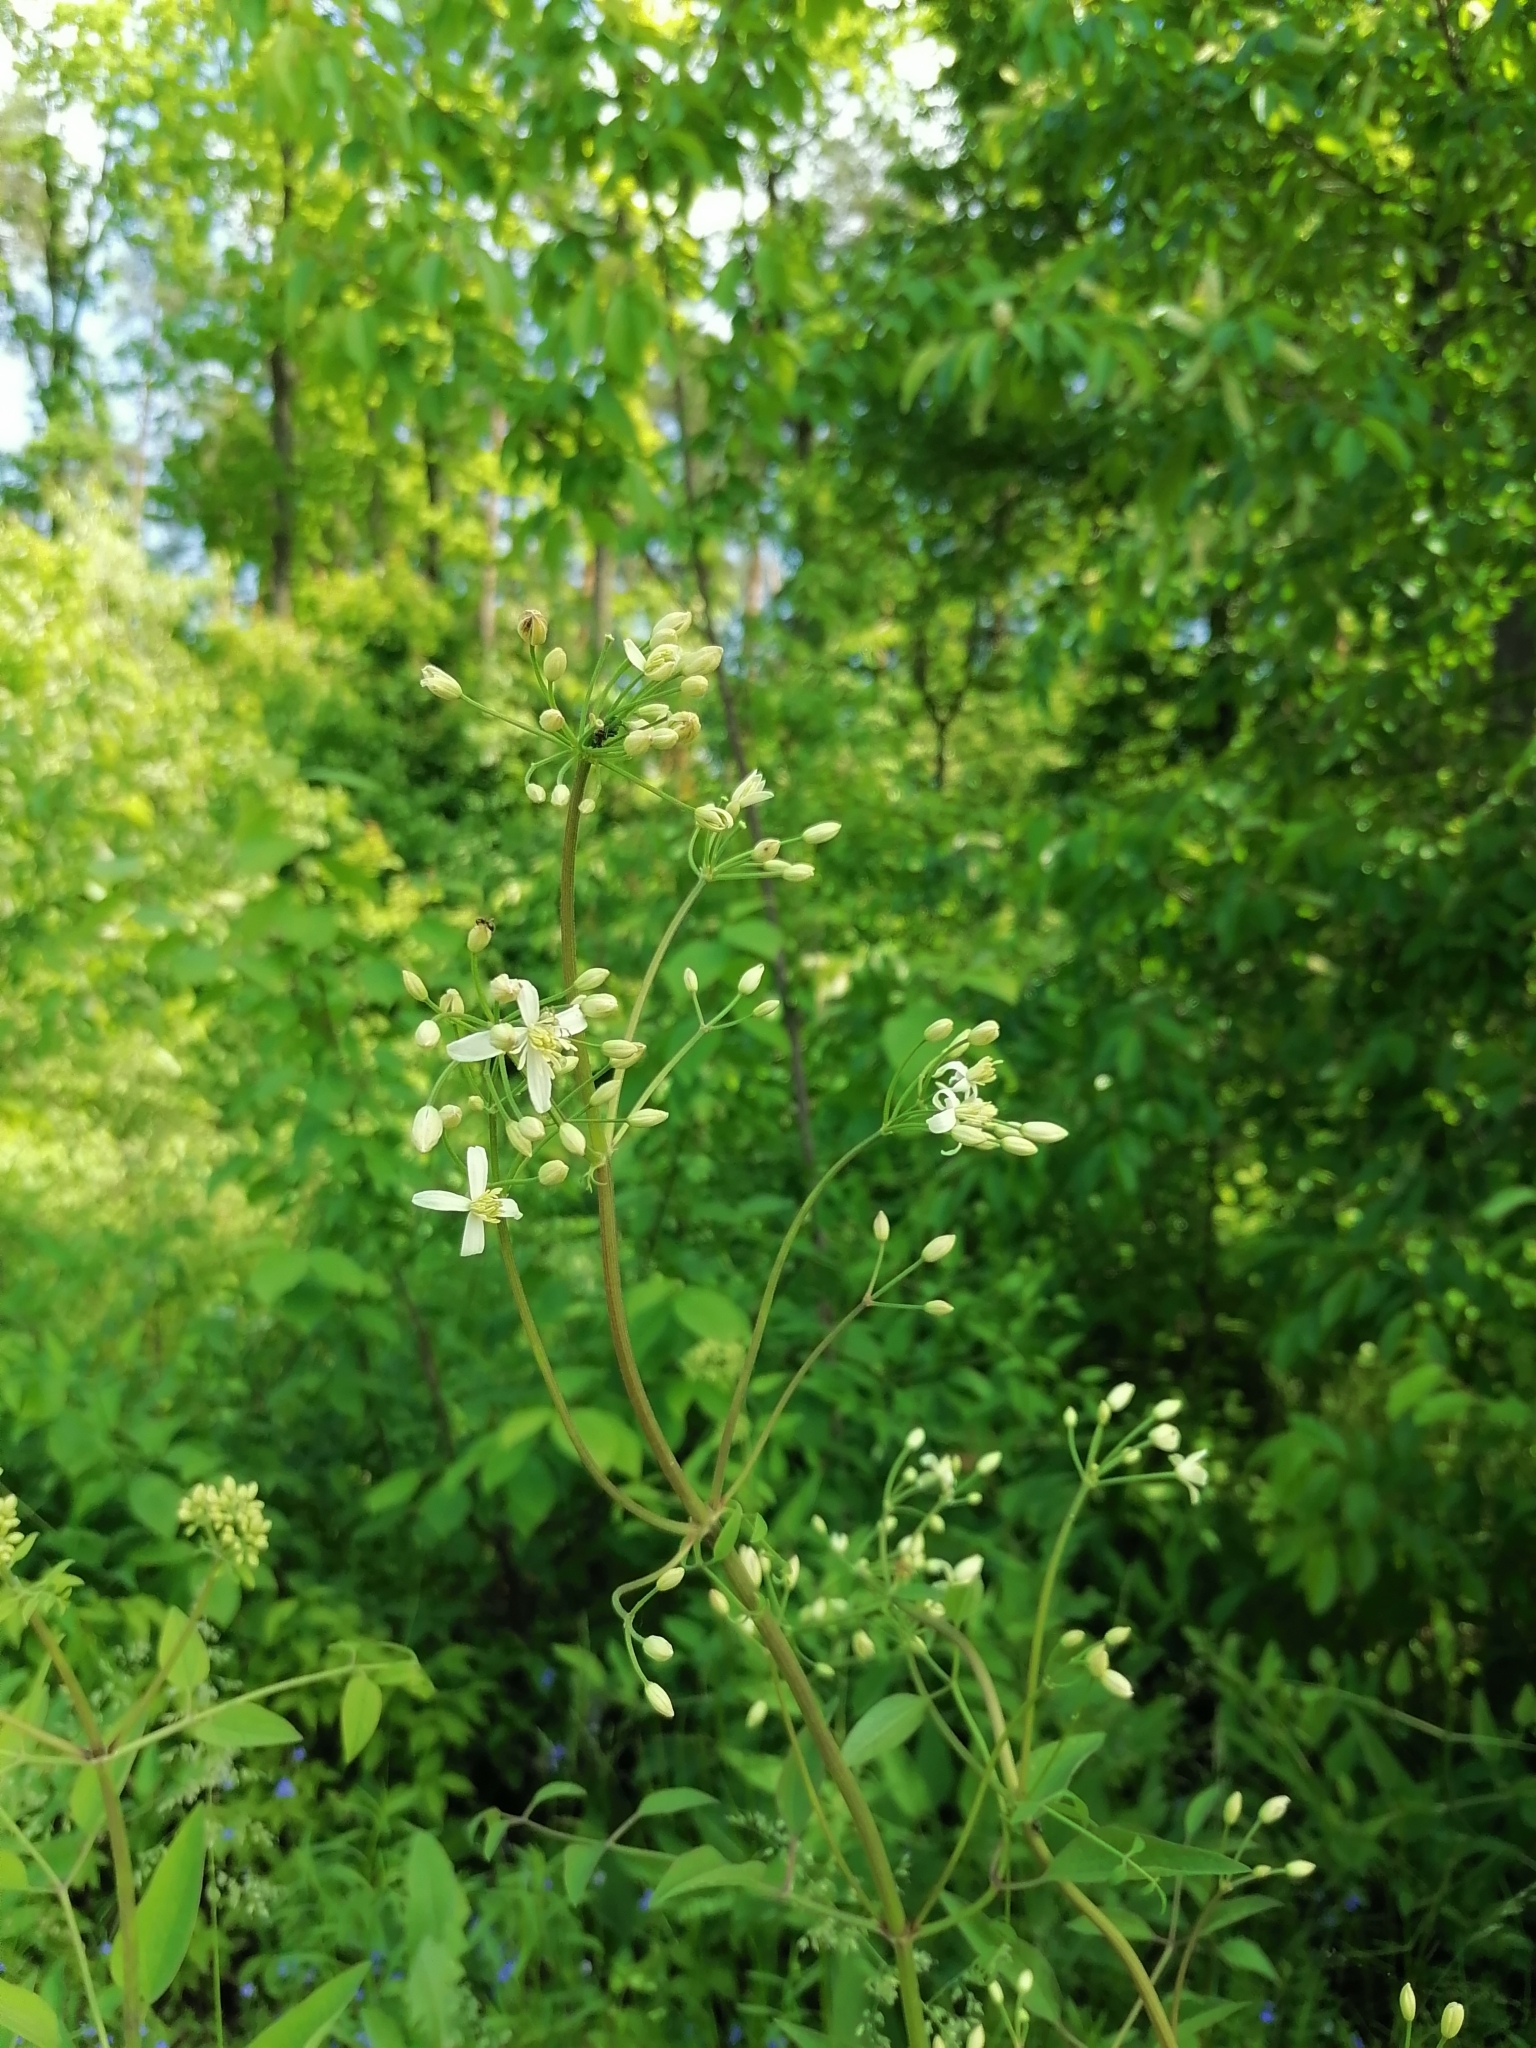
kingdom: Plantae
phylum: Tracheophyta
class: Magnoliopsida
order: Ranunculales
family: Ranunculaceae
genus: Clematis
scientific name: Clematis recta
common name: Ground clematis
